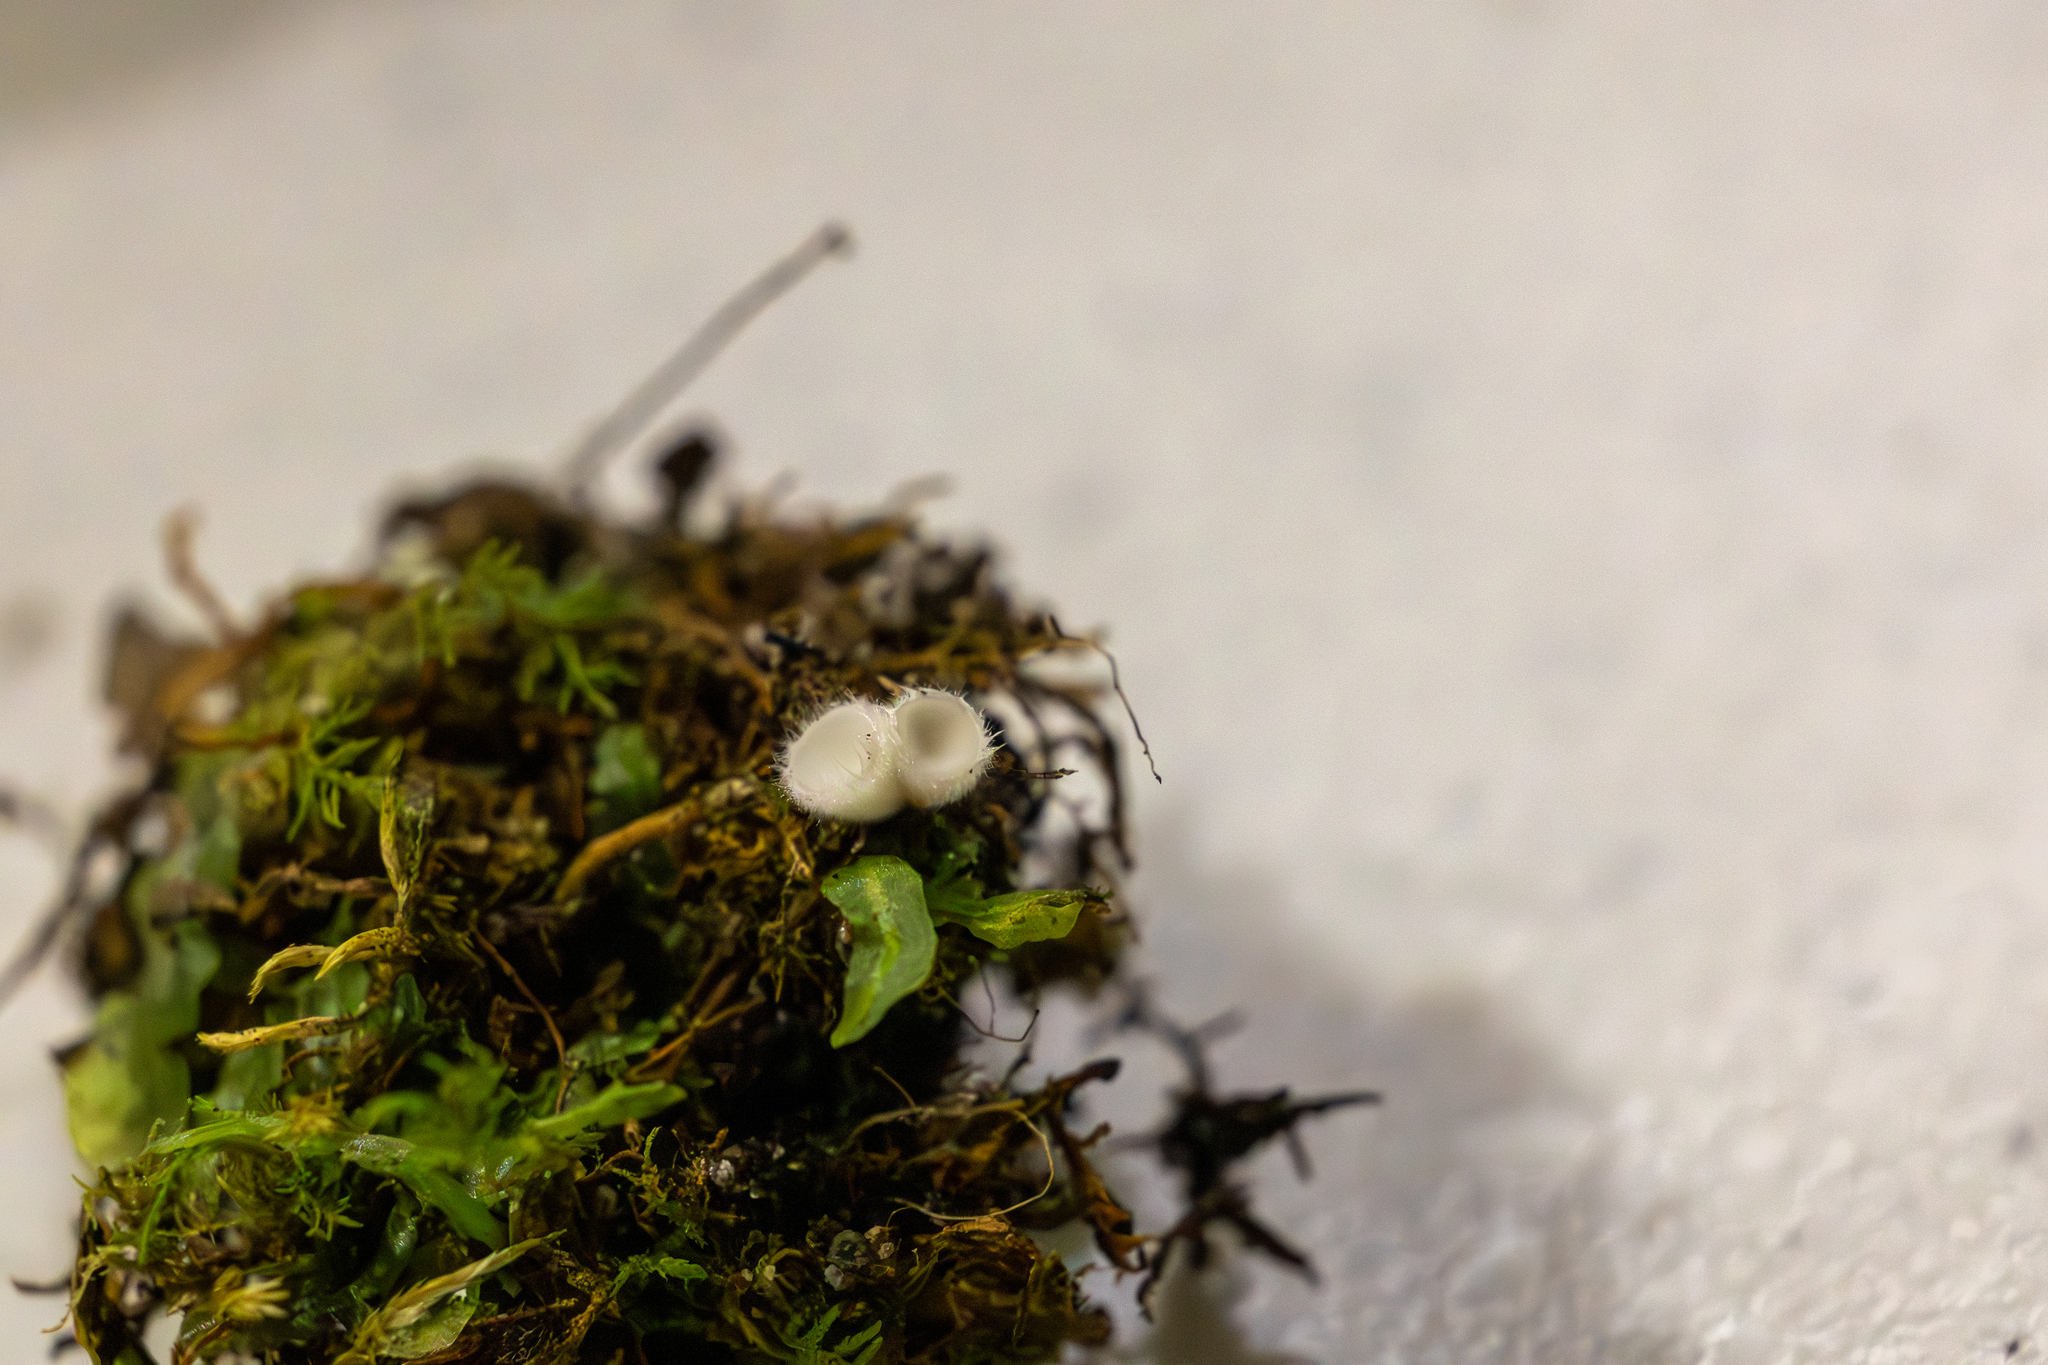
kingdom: Fungi
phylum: Ascomycota
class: Leotiomycetes
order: Helotiales
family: Lachnaceae
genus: Lachnum
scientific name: Lachnum virgineum
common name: Snowy disco
